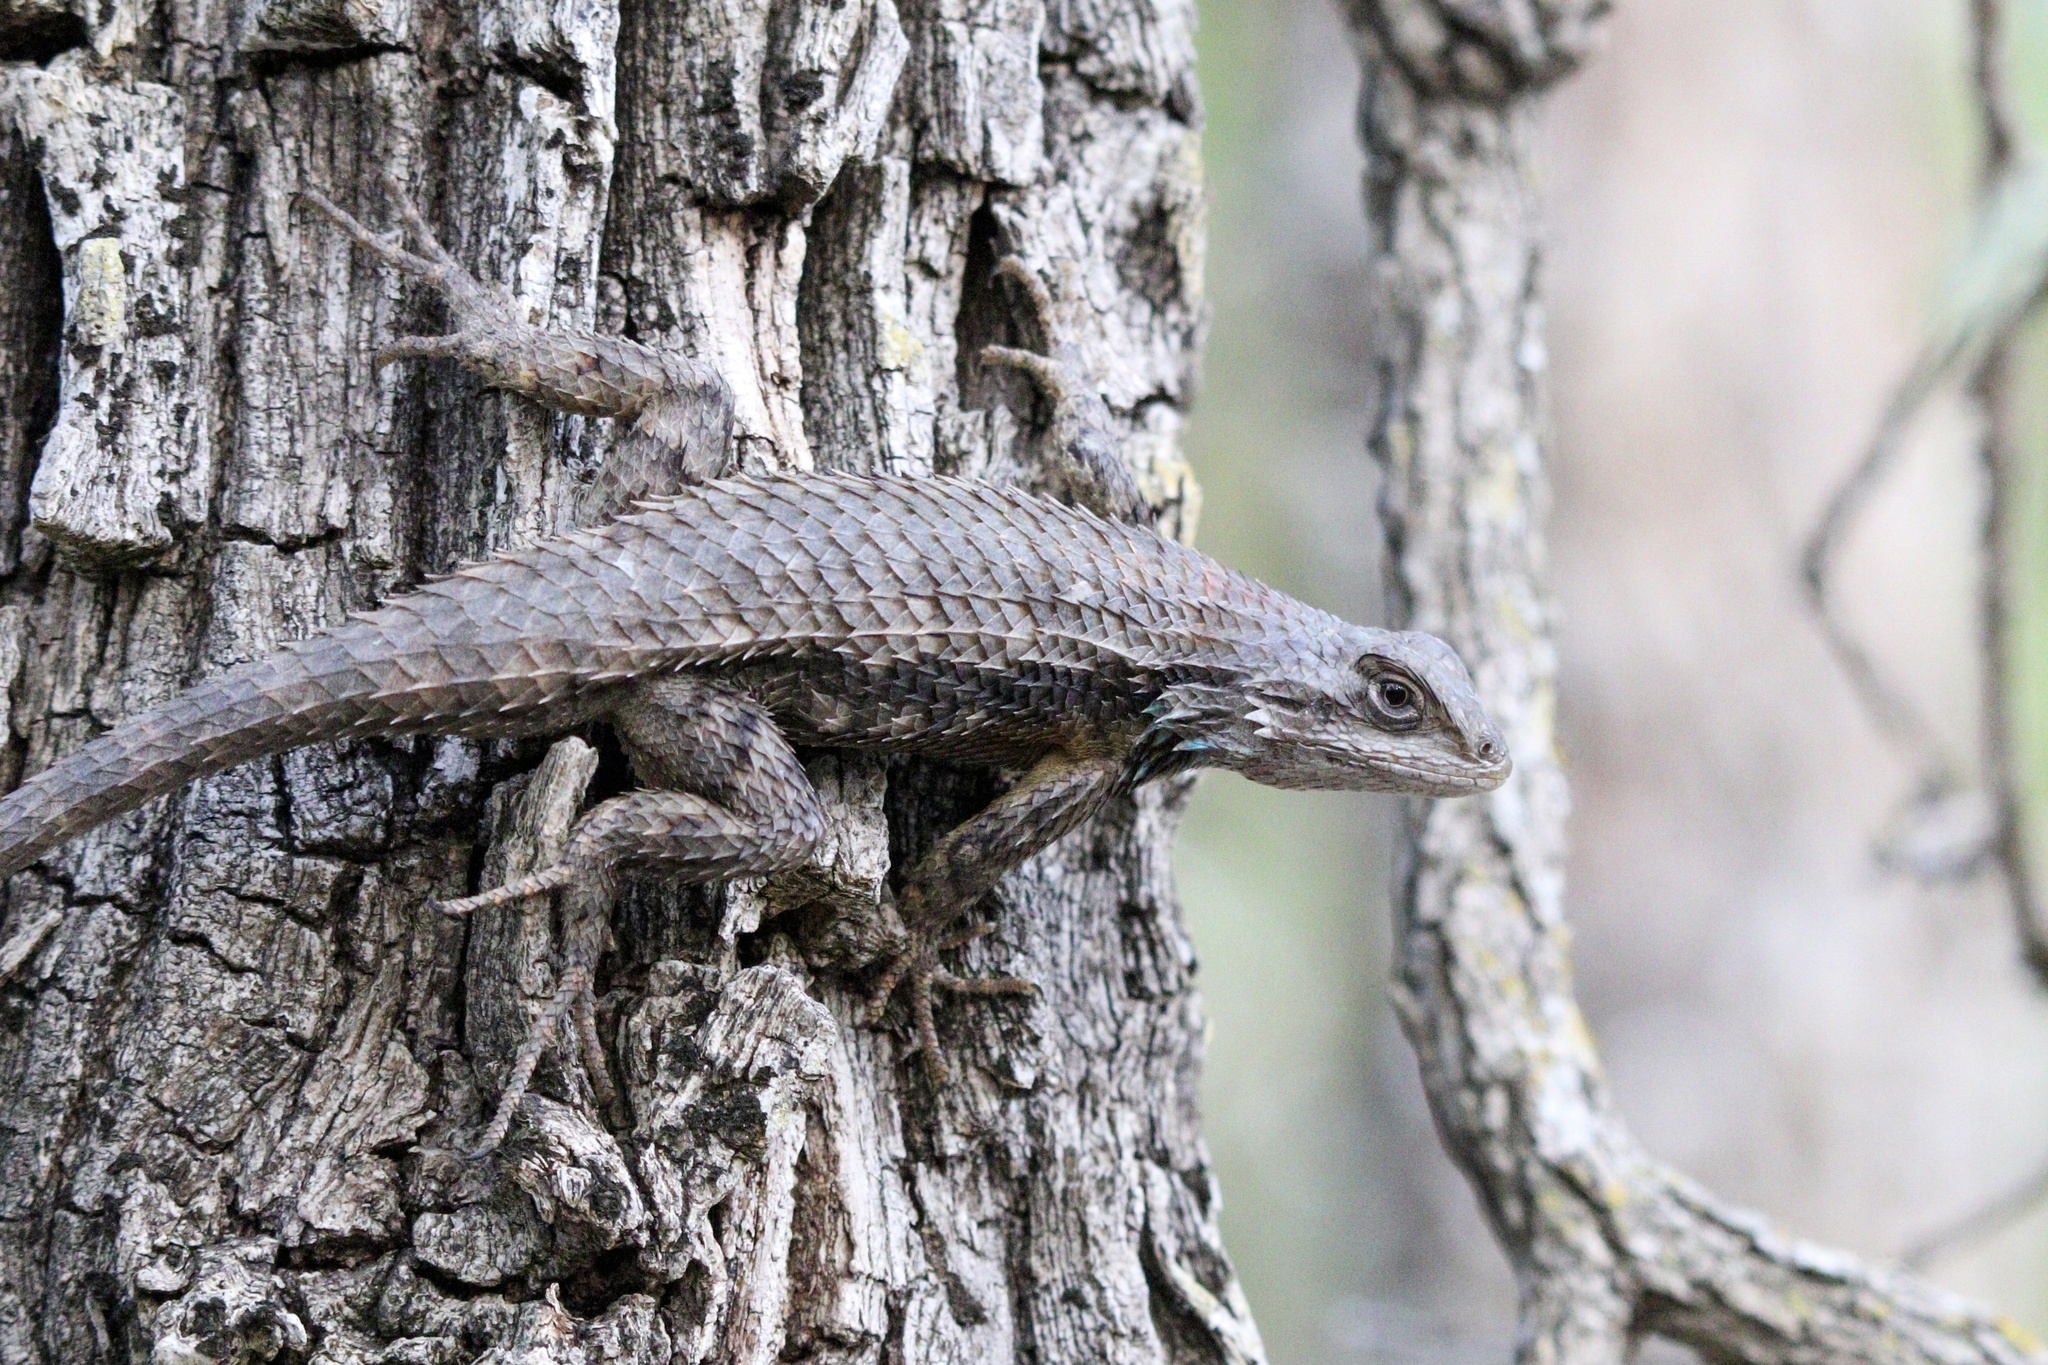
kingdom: Animalia
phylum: Chordata
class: Squamata
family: Phrynosomatidae
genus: Sceloporus
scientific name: Sceloporus olivaceus
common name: Texas spiny lizard
